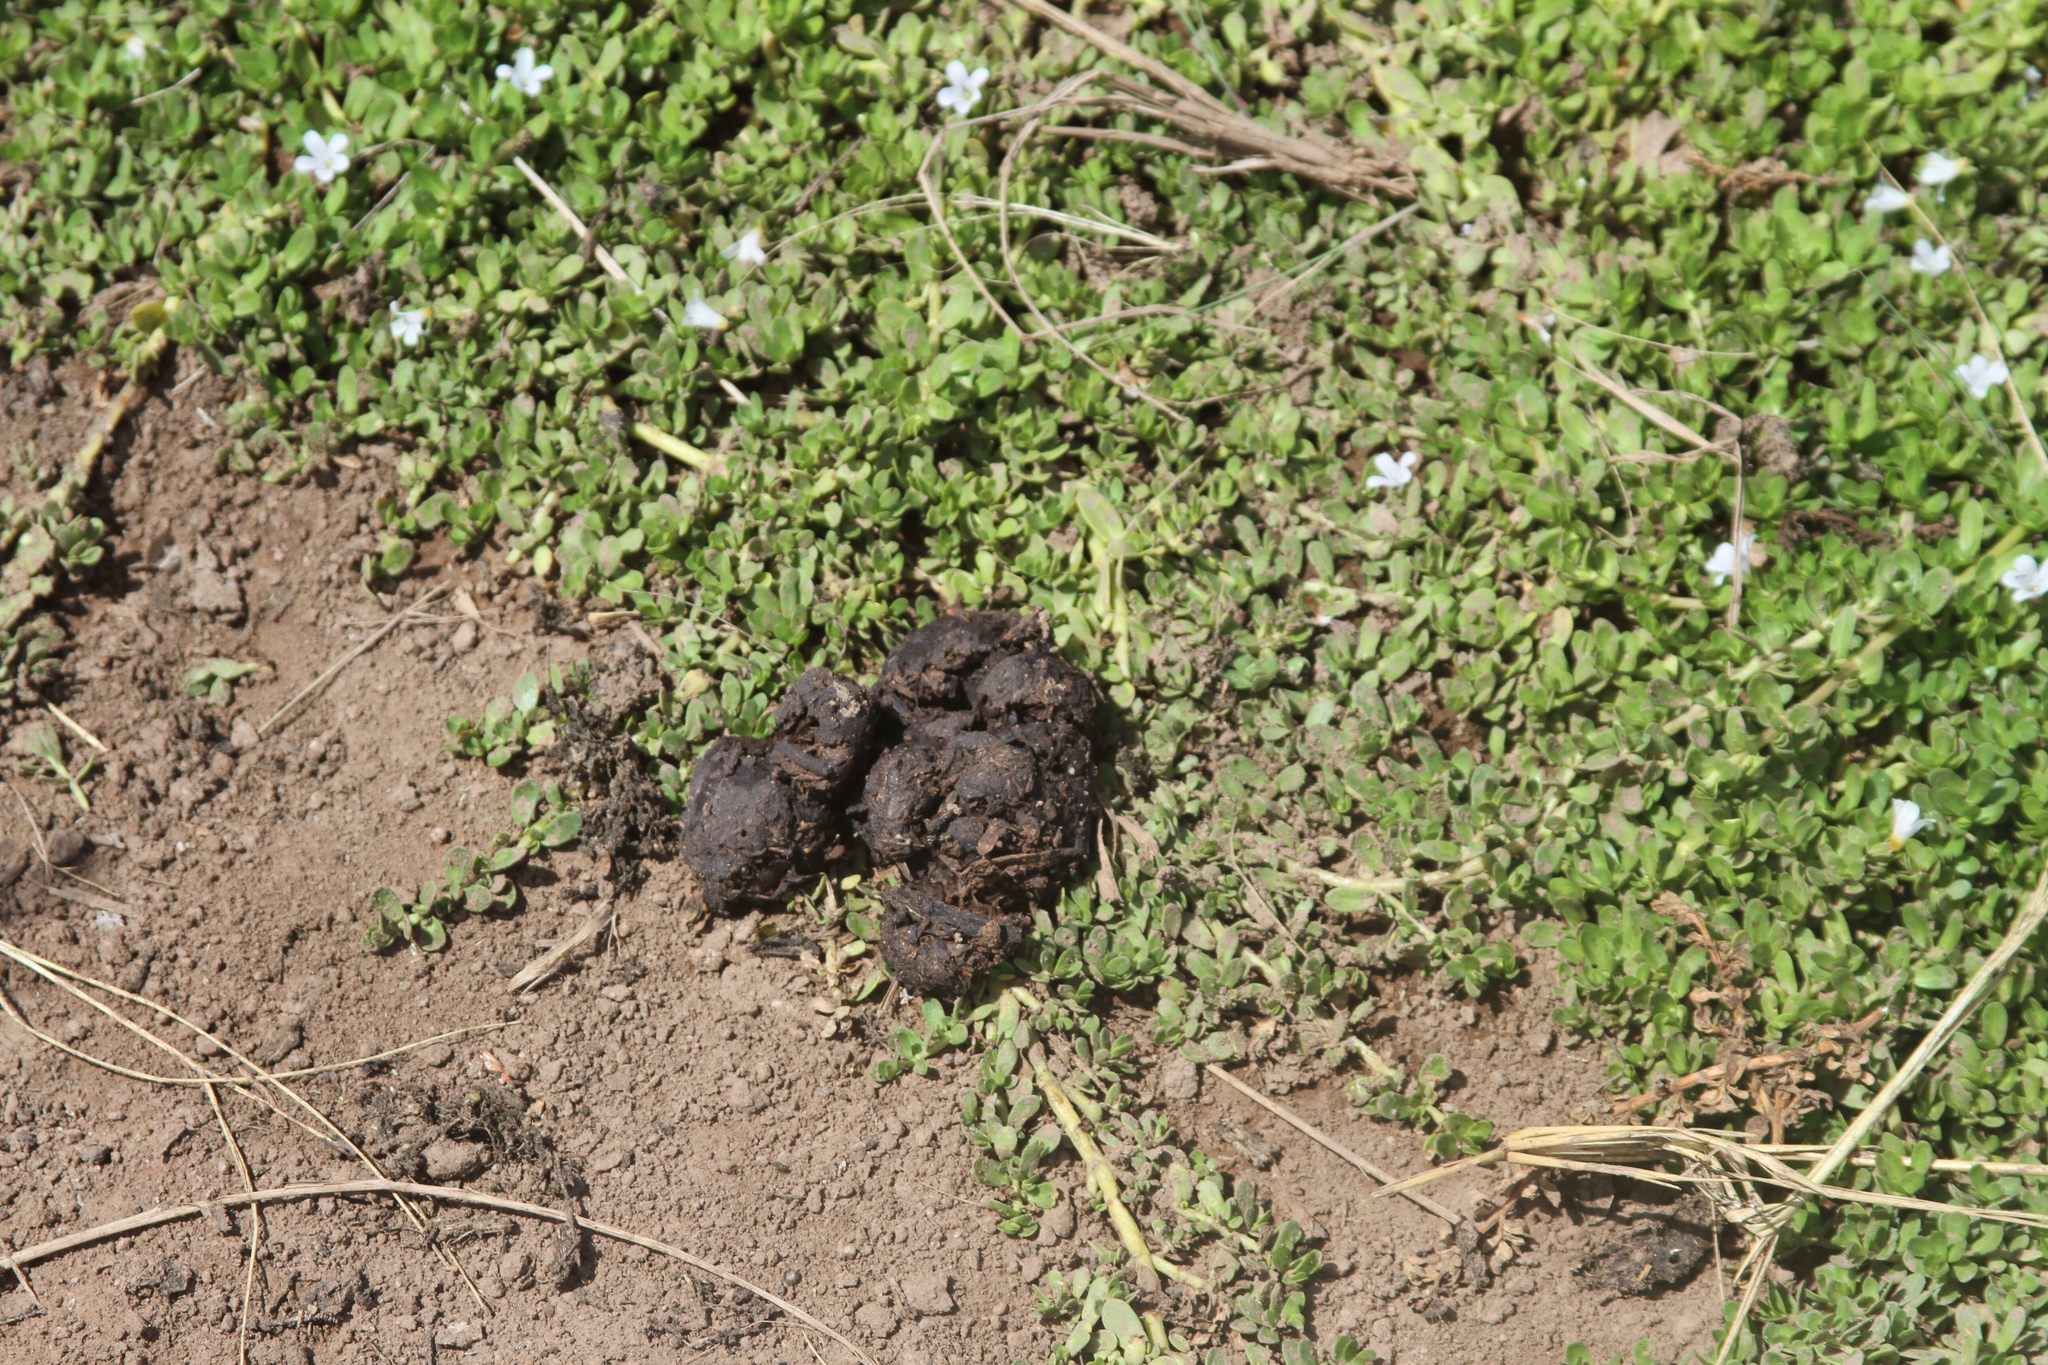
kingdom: Animalia
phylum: Chordata
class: Mammalia
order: Artiodactyla
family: Suidae
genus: Sus
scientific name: Sus scrofa
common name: Wild boar
